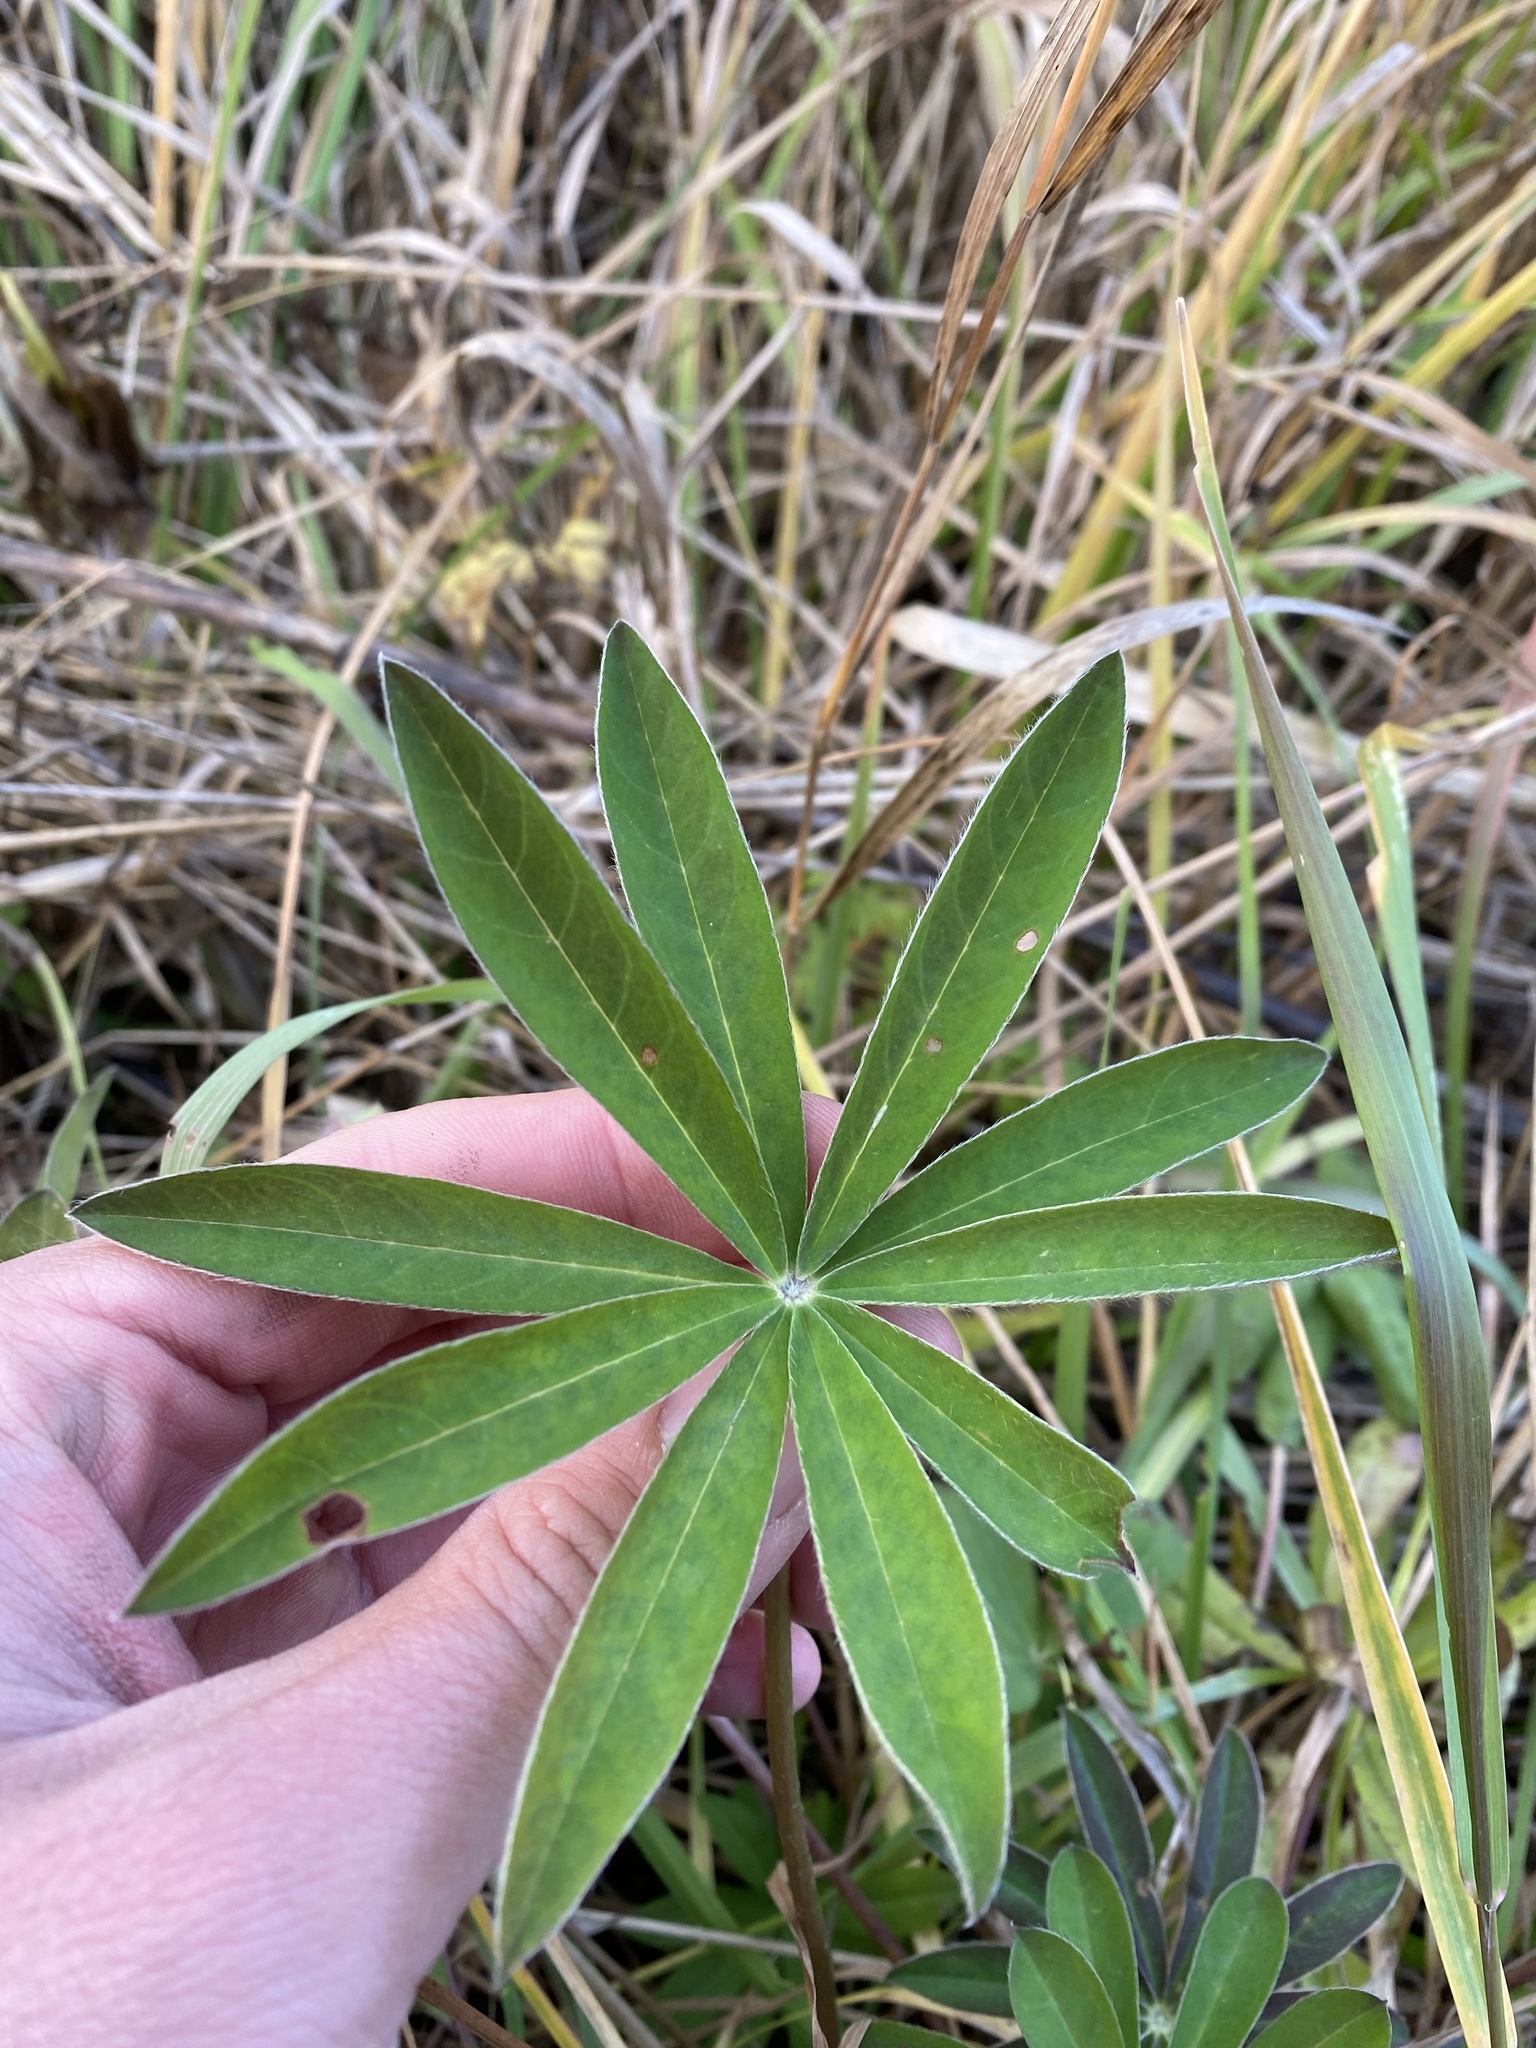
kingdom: Plantae
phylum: Tracheophyta
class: Magnoliopsida
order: Fabales
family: Fabaceae
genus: Lupinus
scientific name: Lupinus polyphyllus
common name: Garden lupin
